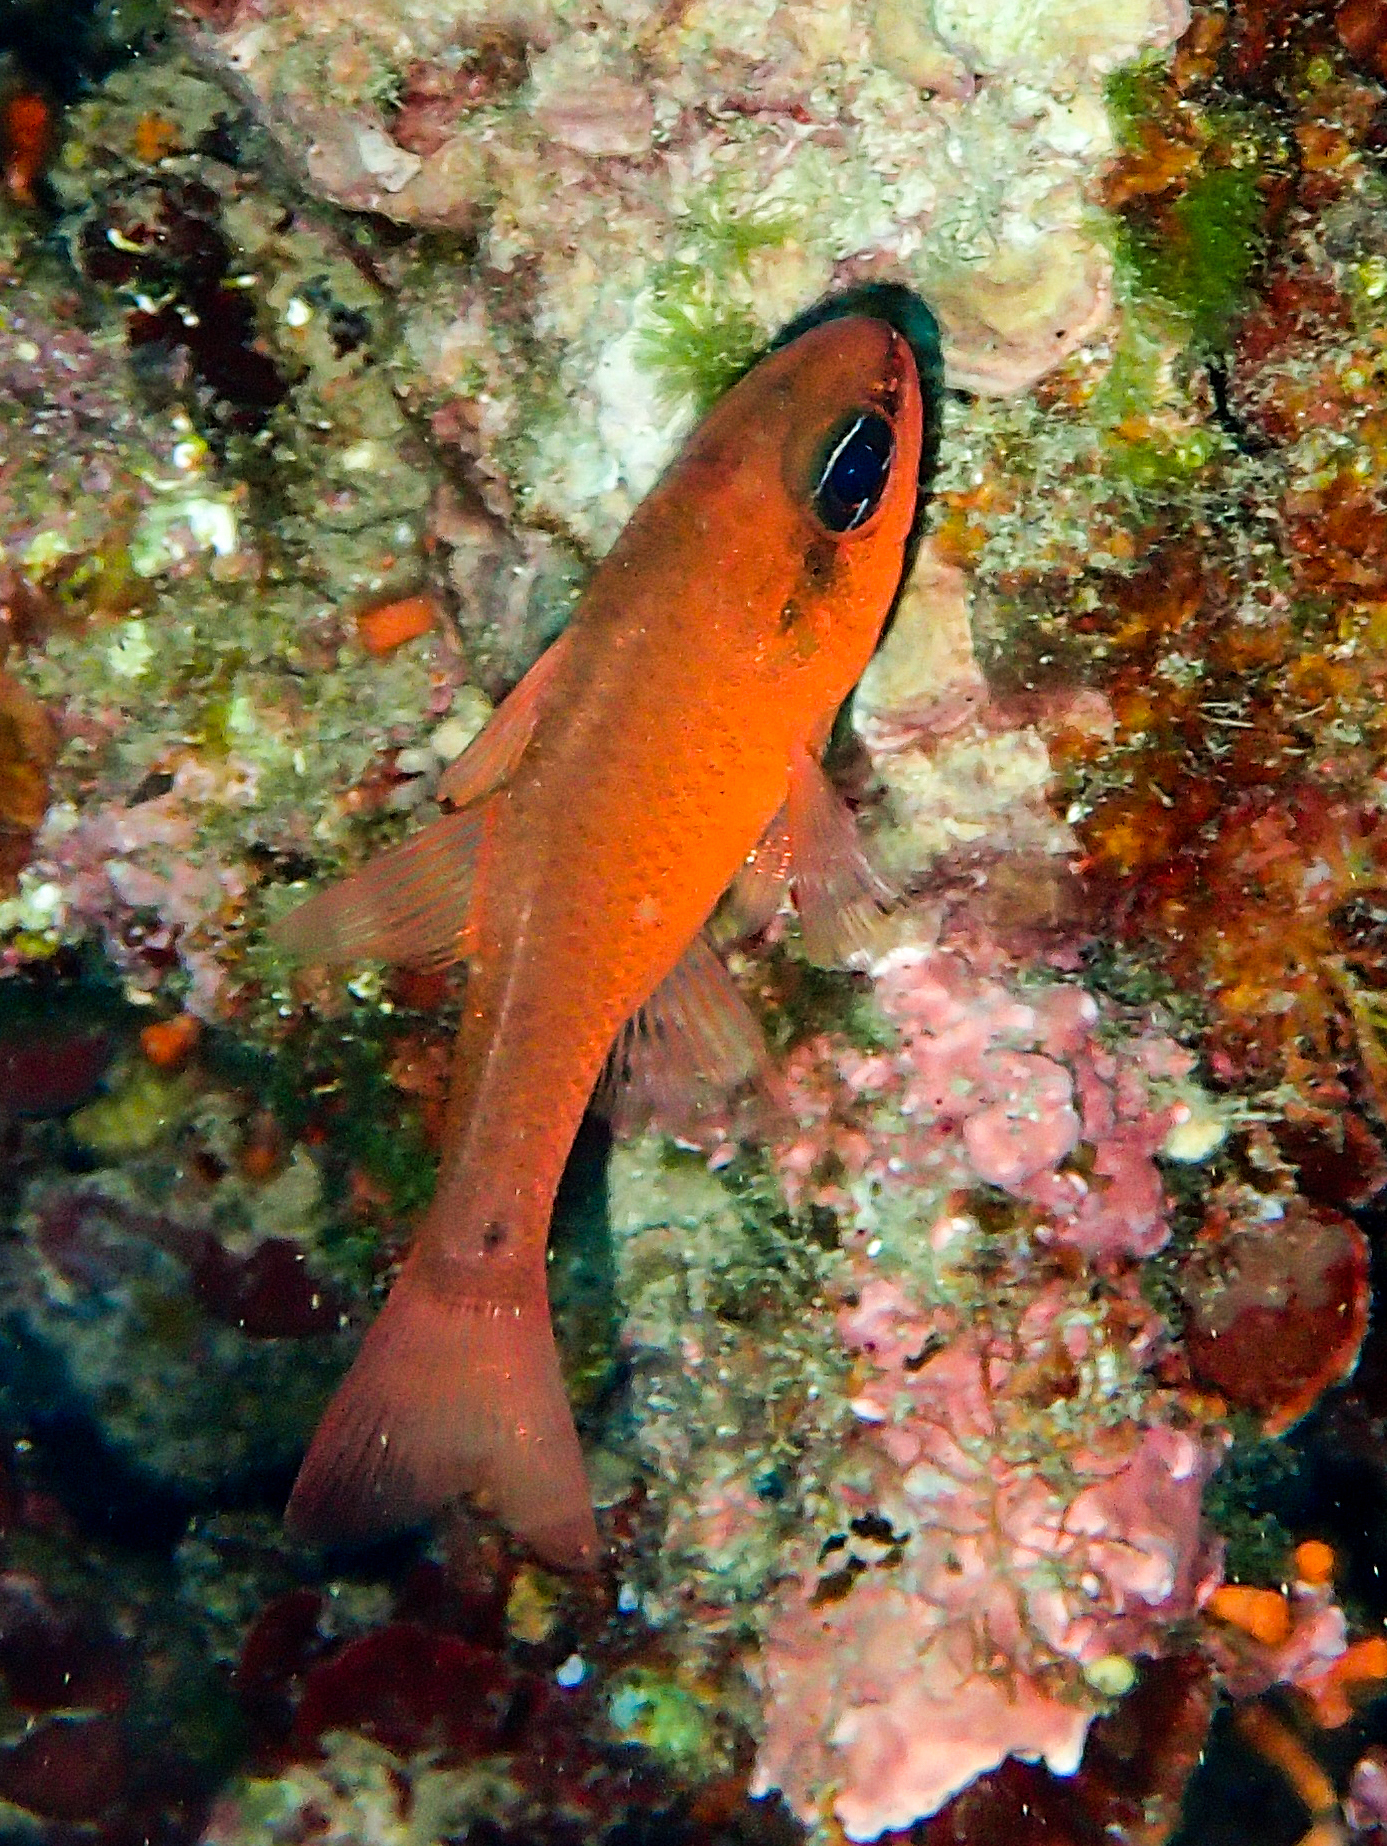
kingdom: Animalia
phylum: Chordata
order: Perciformes
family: Apogonidae
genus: Apogon
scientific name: Apogon imberbis
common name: Cardinal fish
